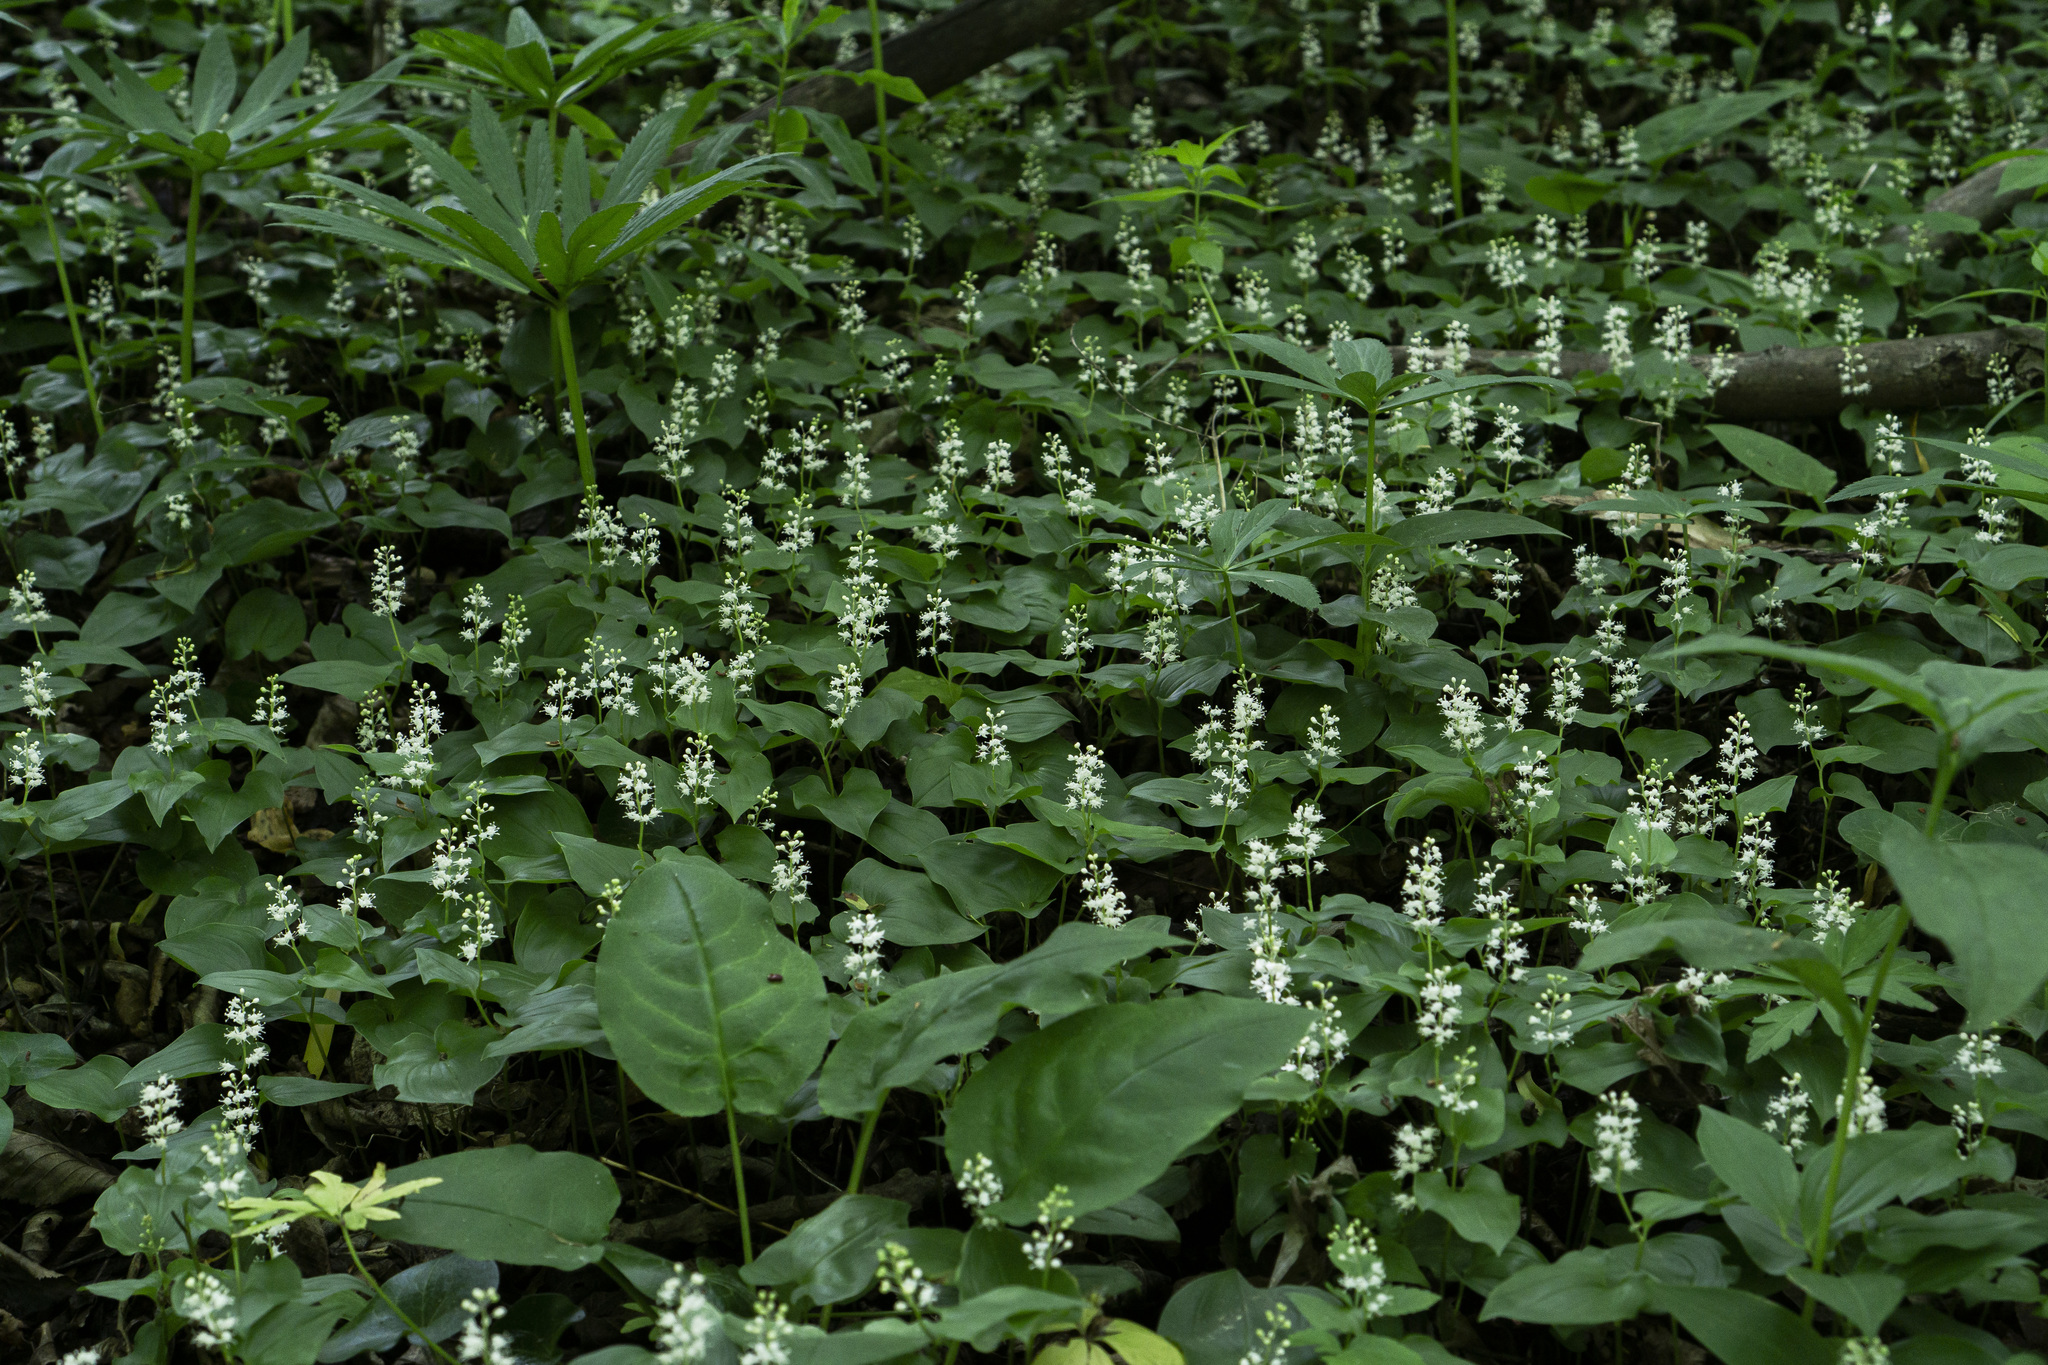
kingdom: Plantae
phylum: Tracheophyta
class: Liliopsida
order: Asparagales
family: Asparagaceae
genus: Maianthemum
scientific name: Maianthemum bifolium
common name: May lily
